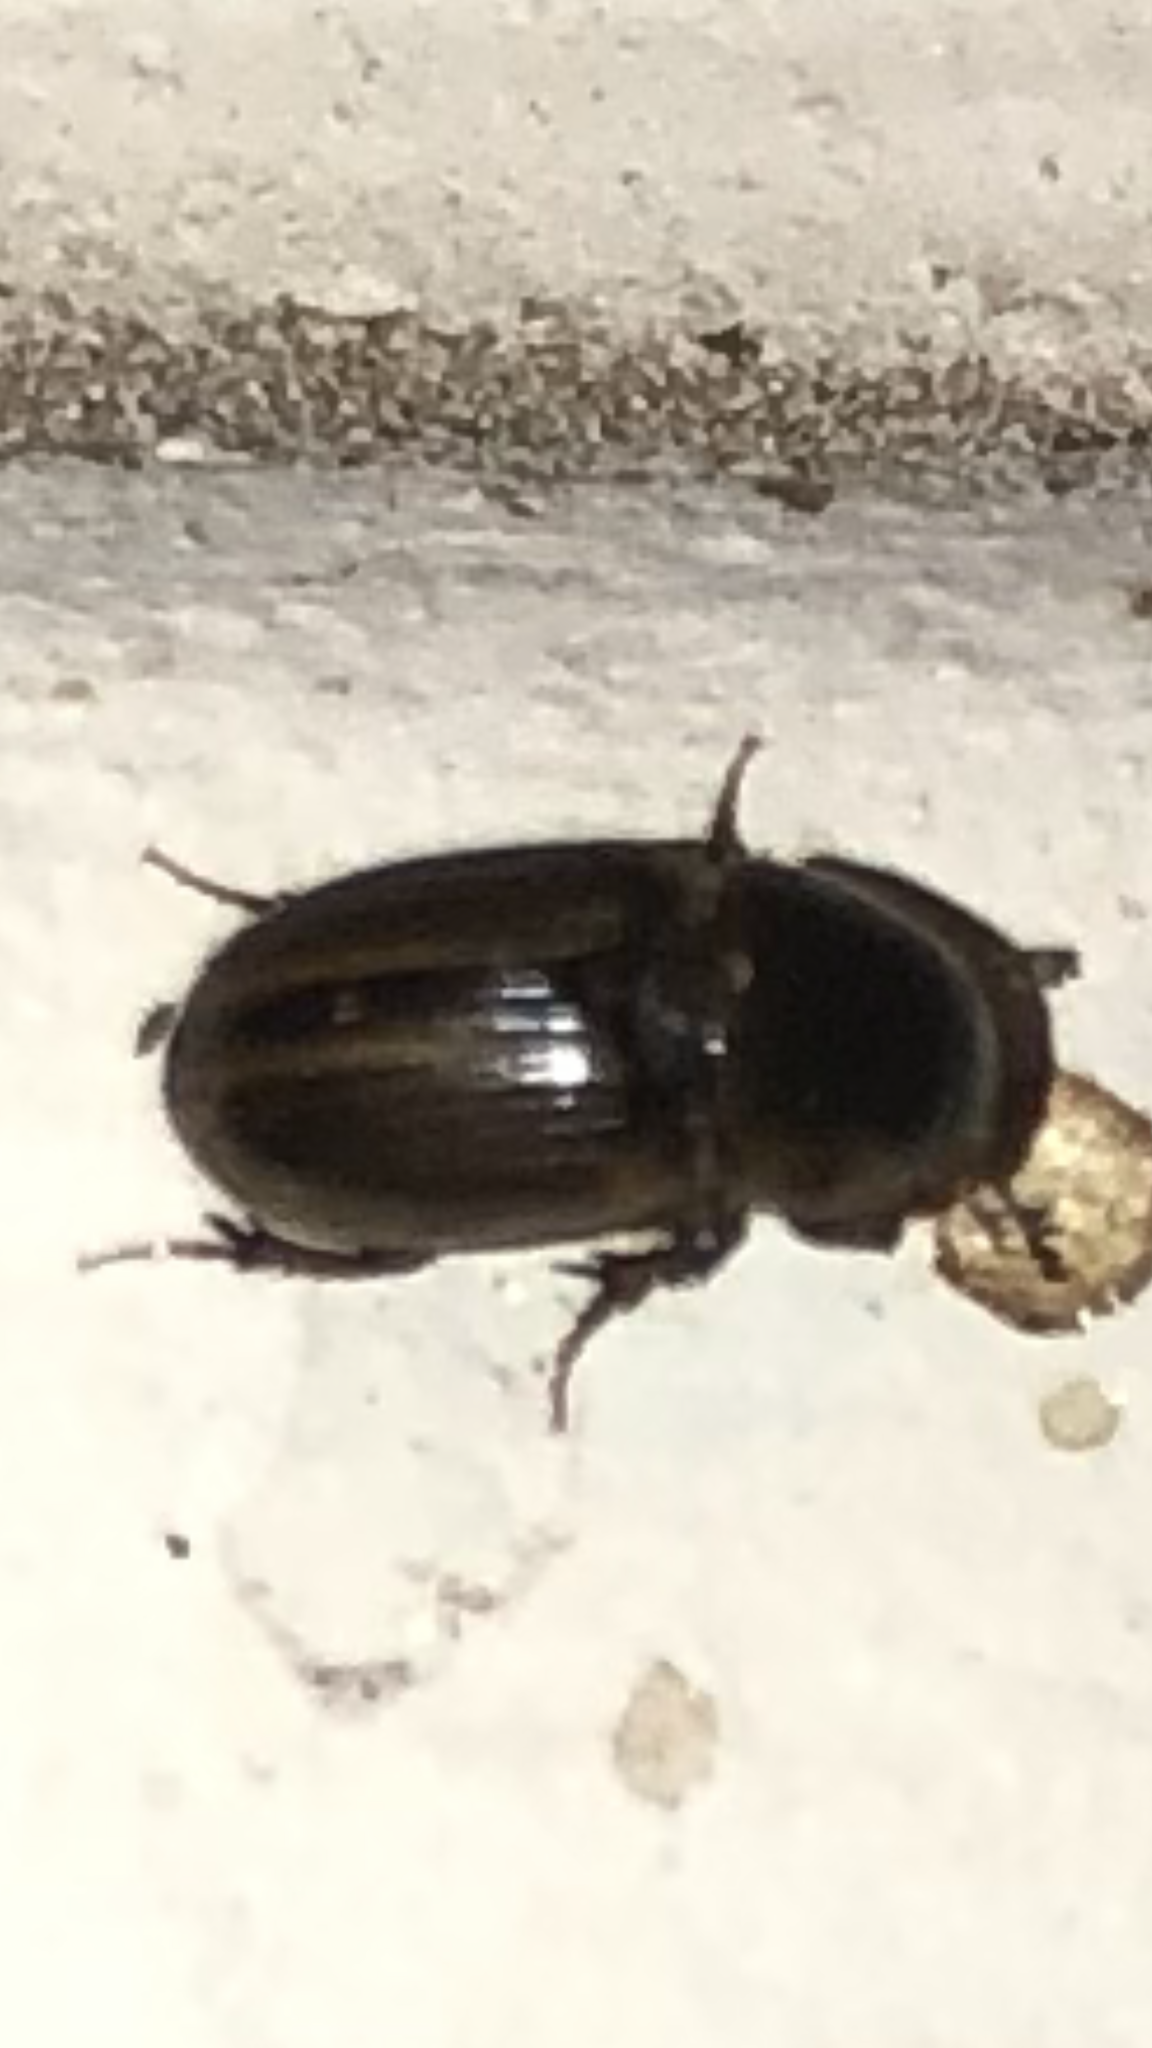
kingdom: Animalia
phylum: Arthropoda
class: Insecta
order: Coleoptera
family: Scarabaeidae
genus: Labarrus
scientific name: Labarrus lividus
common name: Scarab beetle
